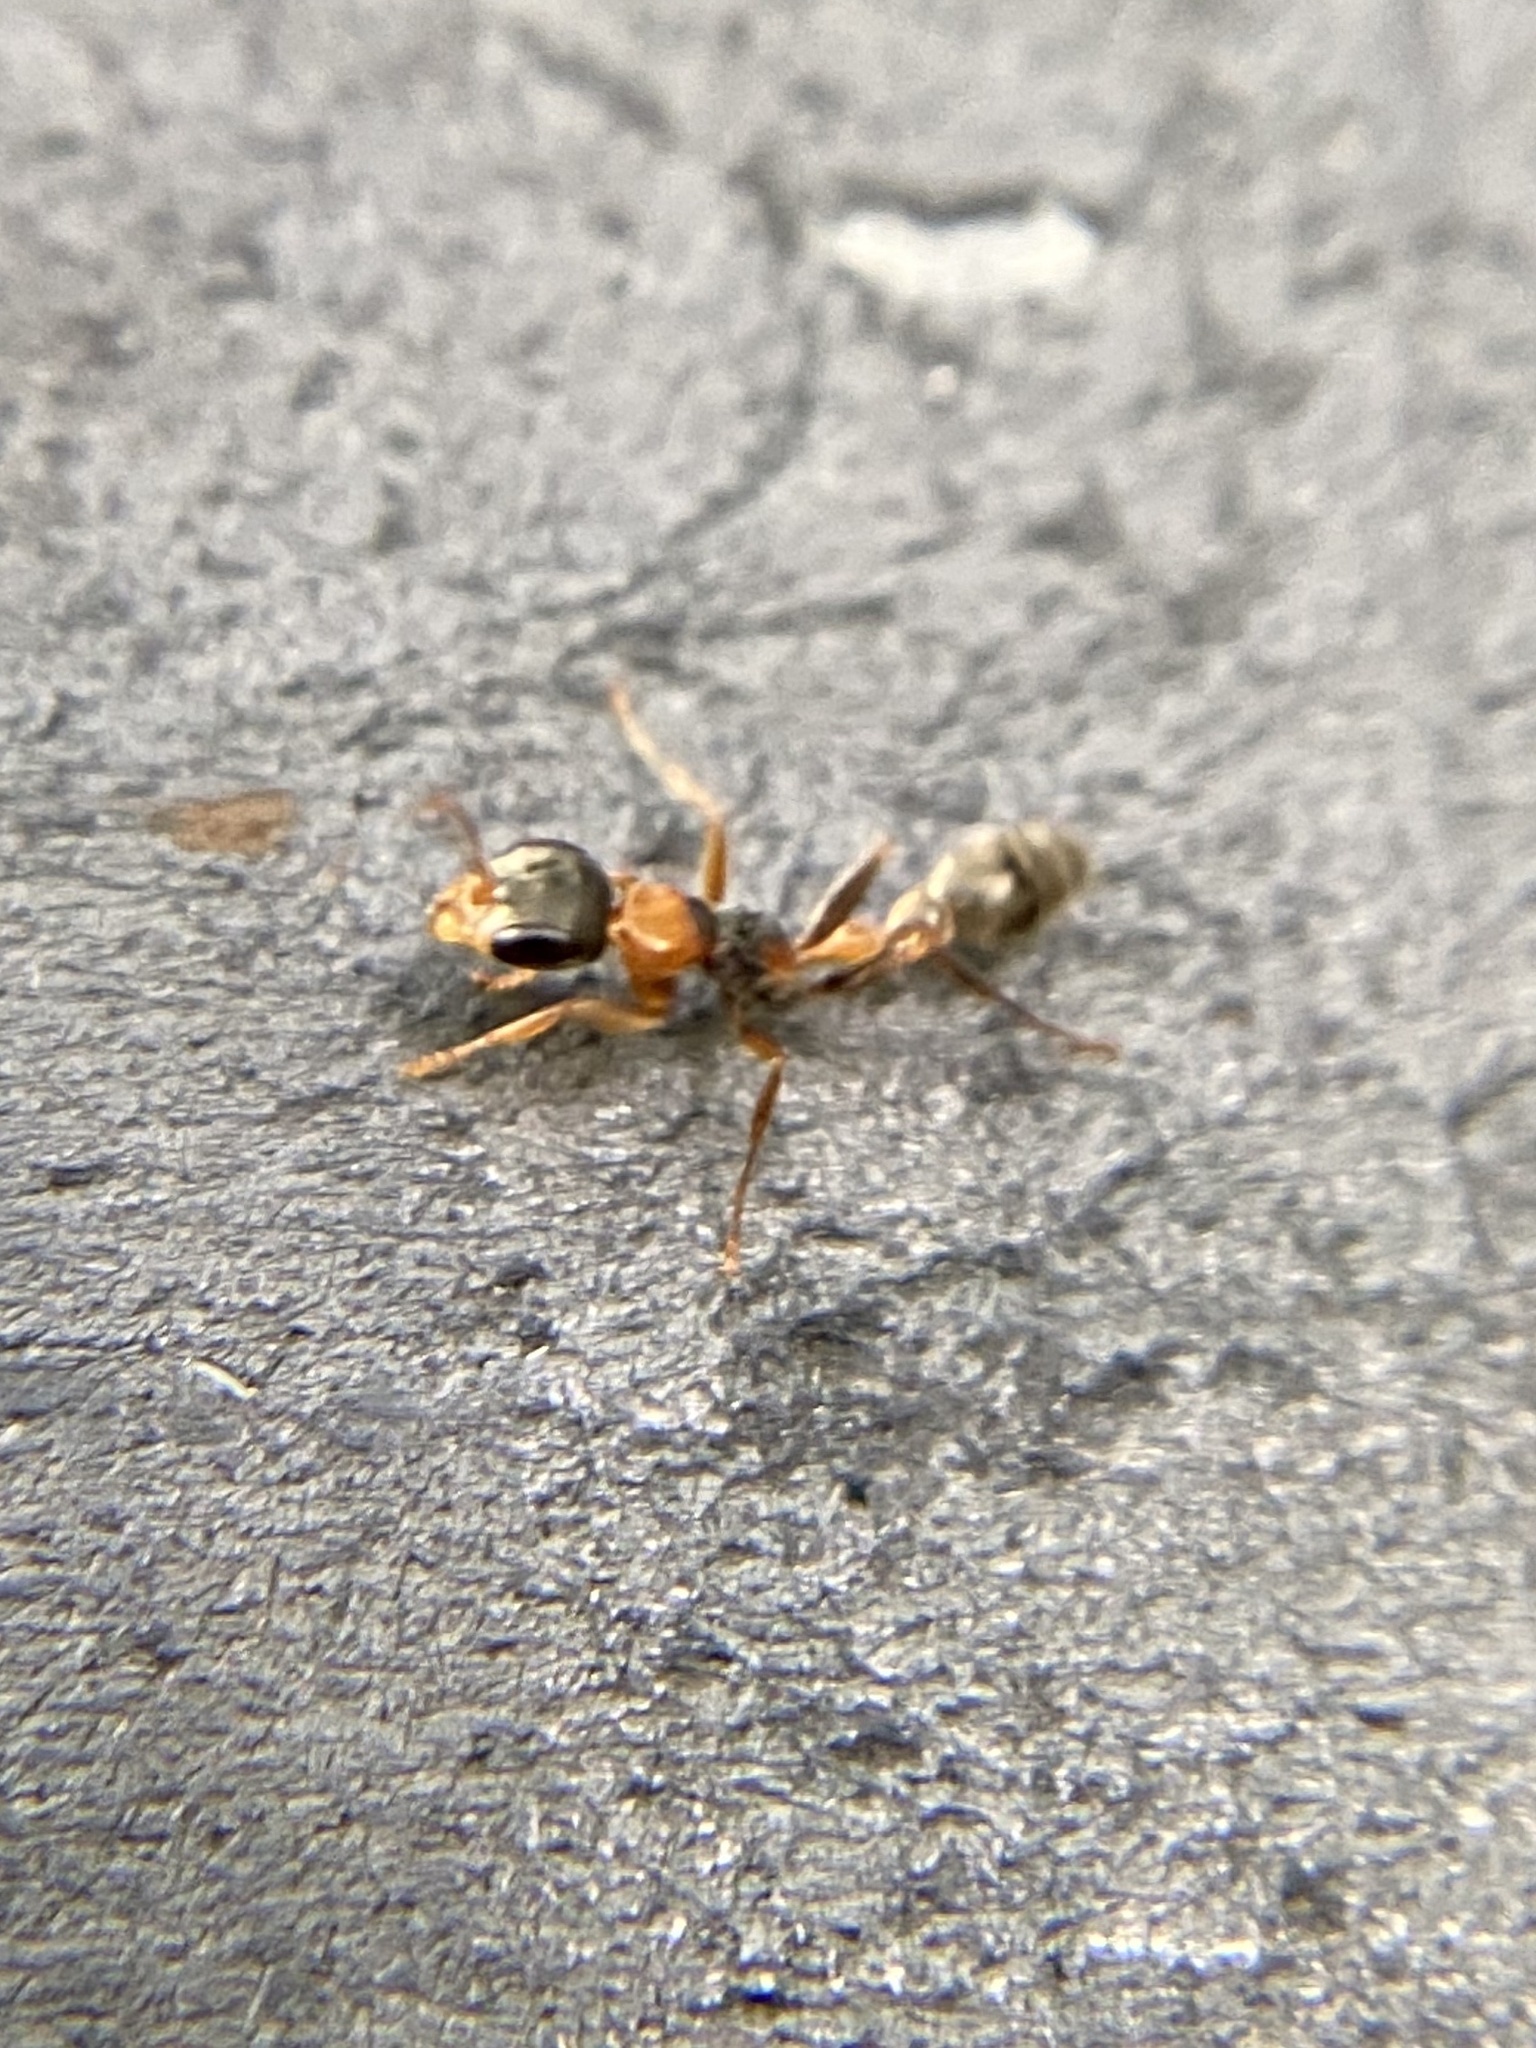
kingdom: Animalia
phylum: Arthropoda
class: Insecta
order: Hymenoptera
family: Formicidae
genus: Pseudomyrmex
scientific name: Pseudomyrmex gracilis
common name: Graceful twig ant
